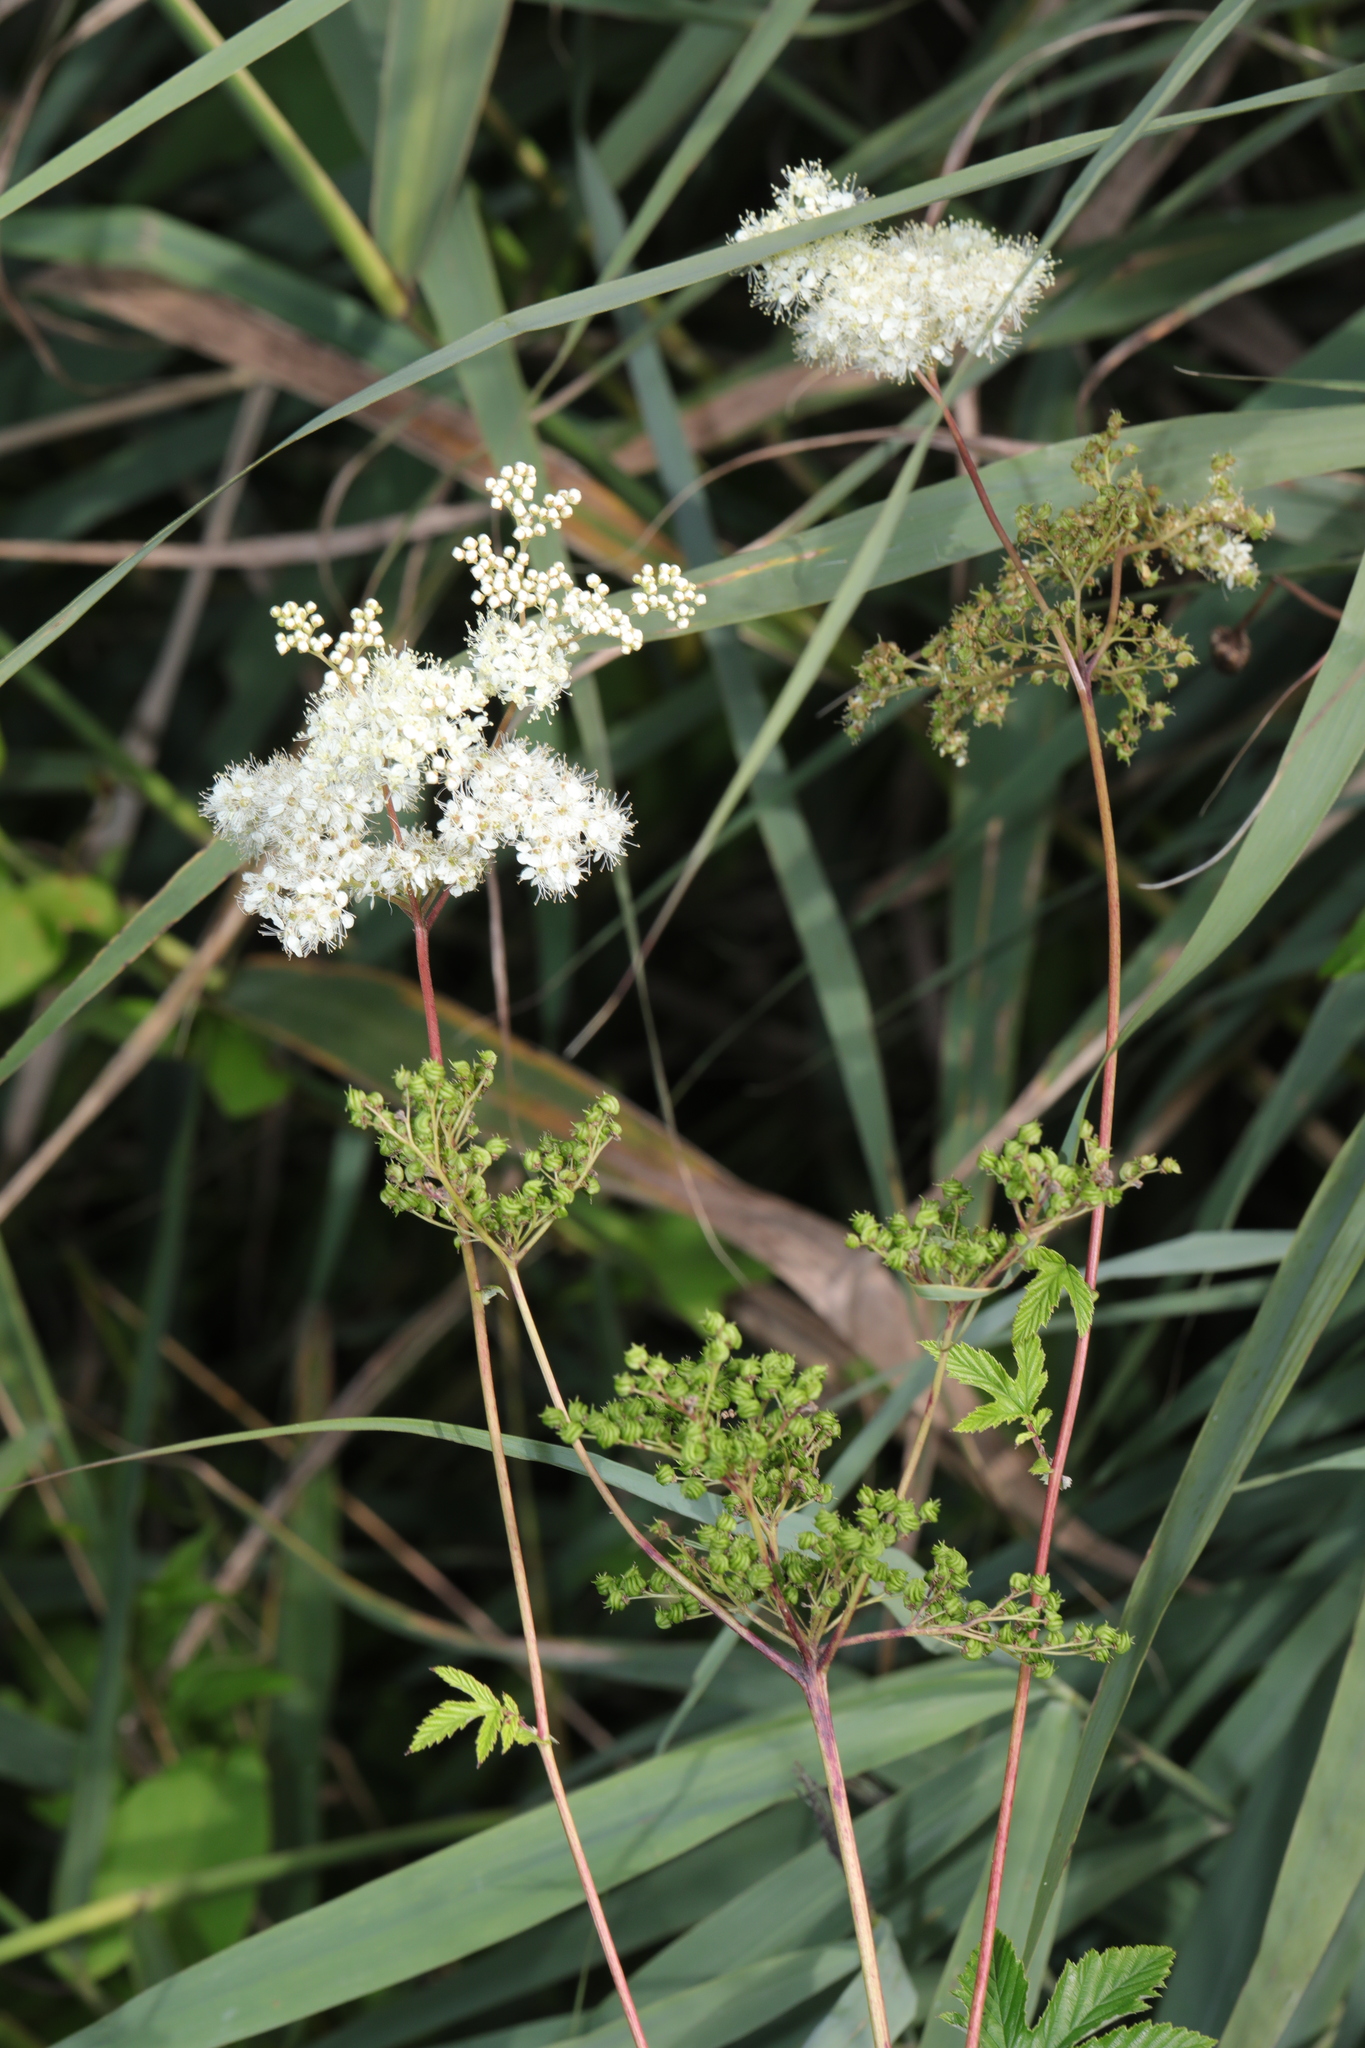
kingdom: Plantae
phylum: Tracheophyta
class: Magnoliopsida
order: Rosales
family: Rosaceae
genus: Filipendula
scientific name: Filipendula ulmaria
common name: Meadowsweet
